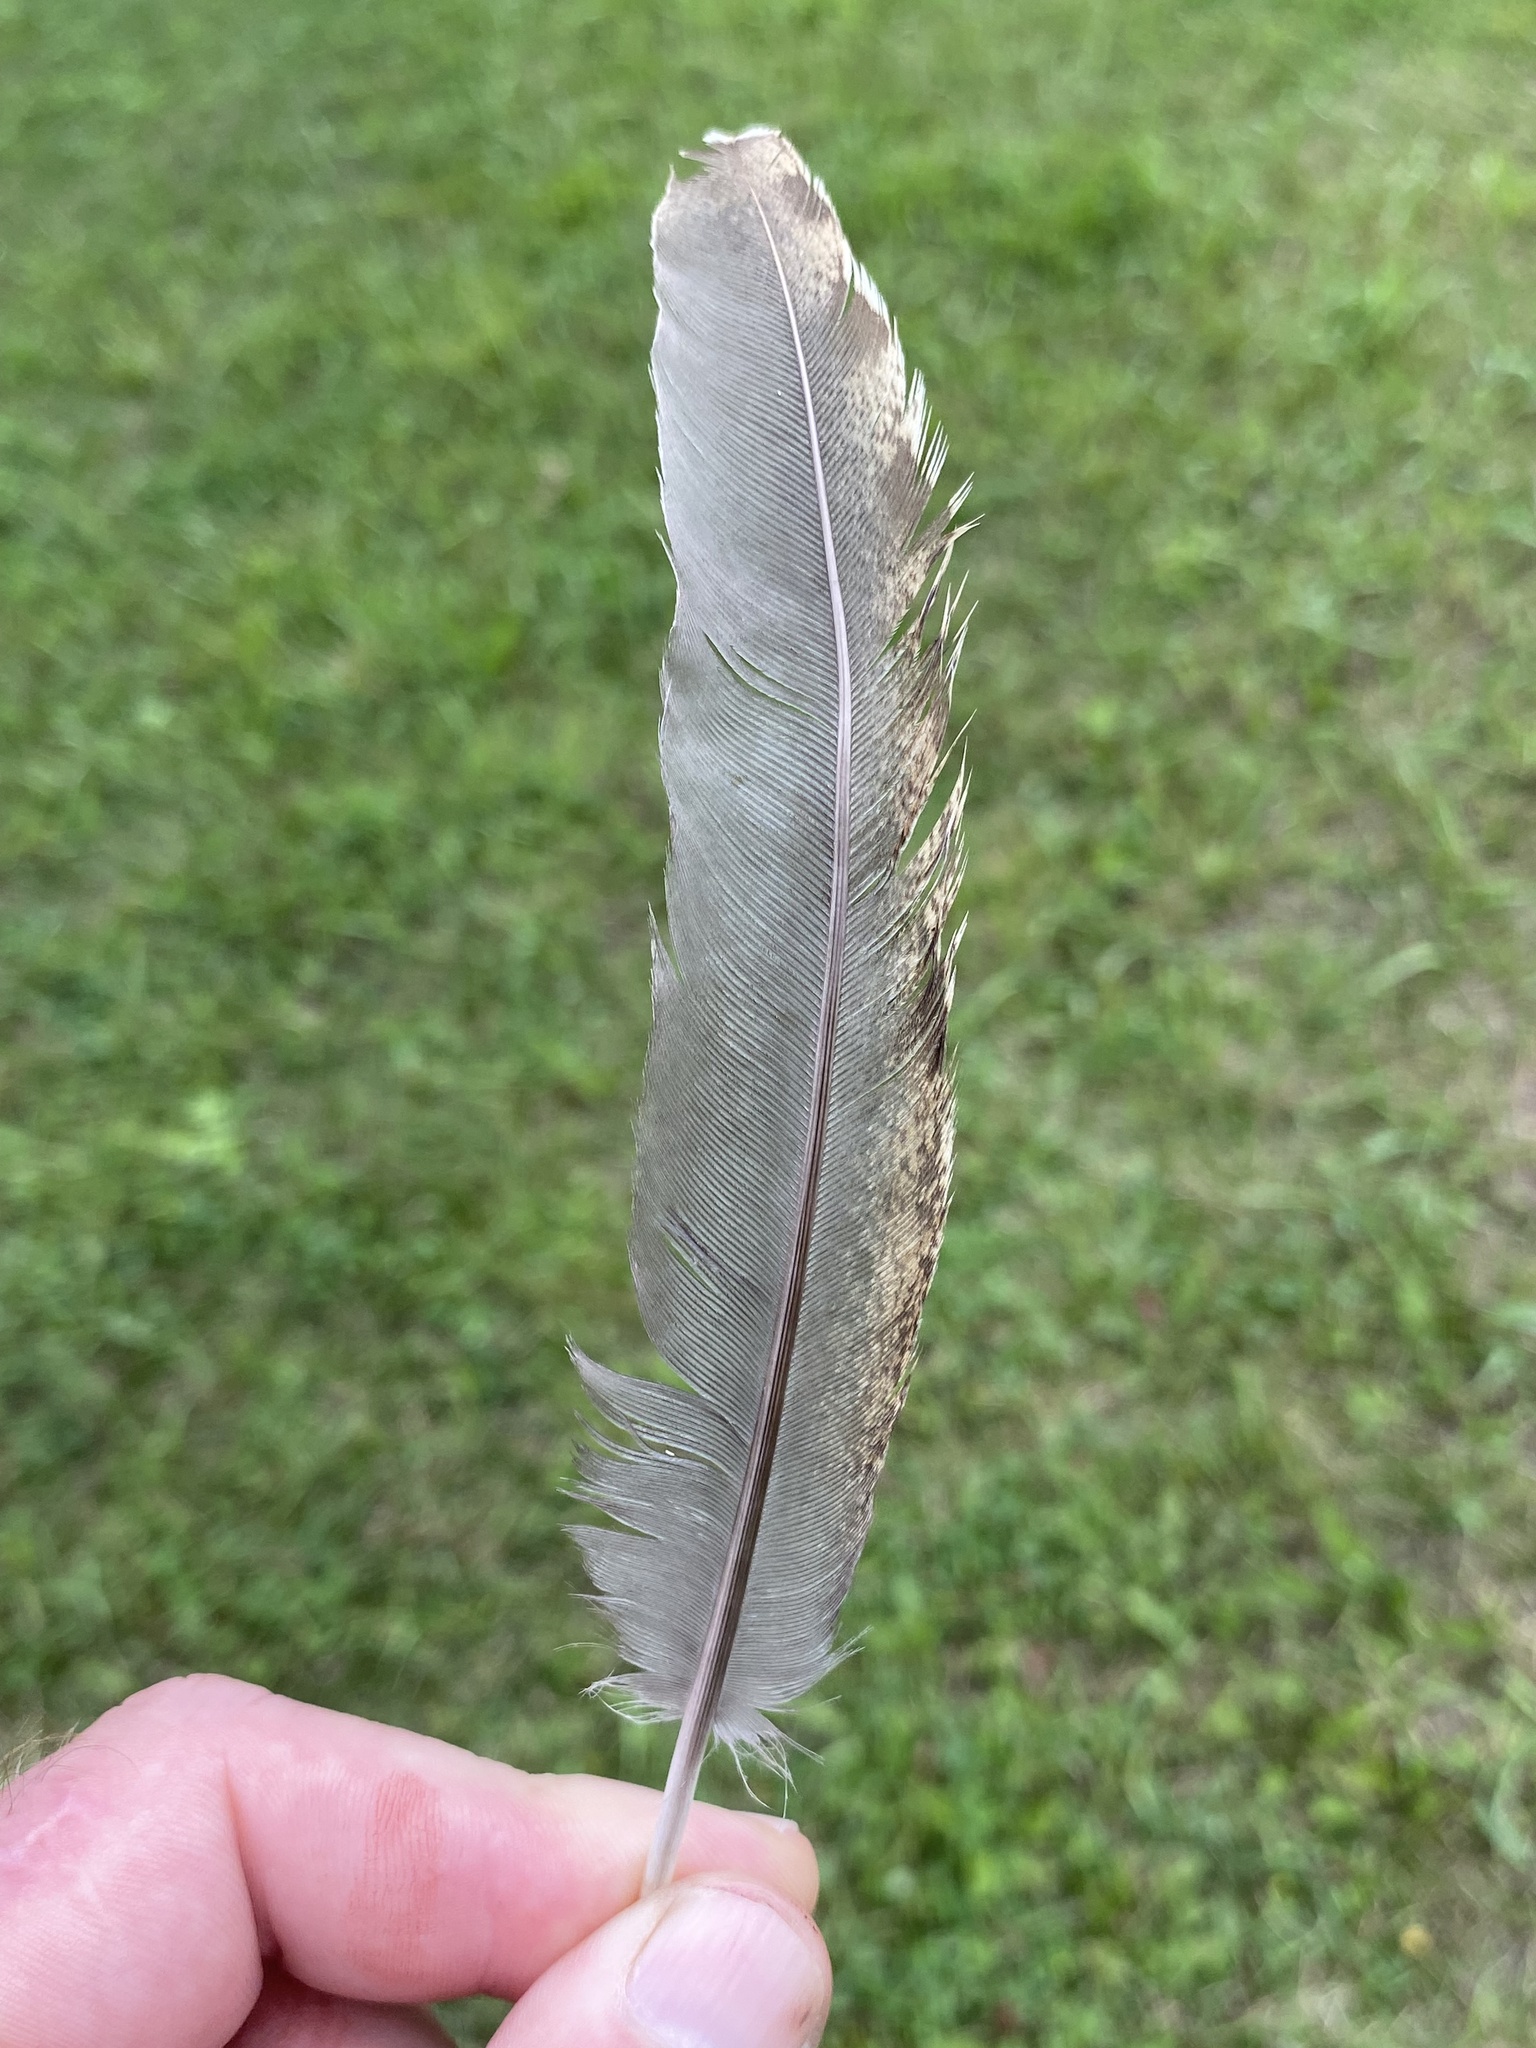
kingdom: Animalia
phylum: Chordata
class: Aves
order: Galliformes
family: Phasianidae
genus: Meleagris
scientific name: Meleagris gallopavo
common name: Wild turkey
